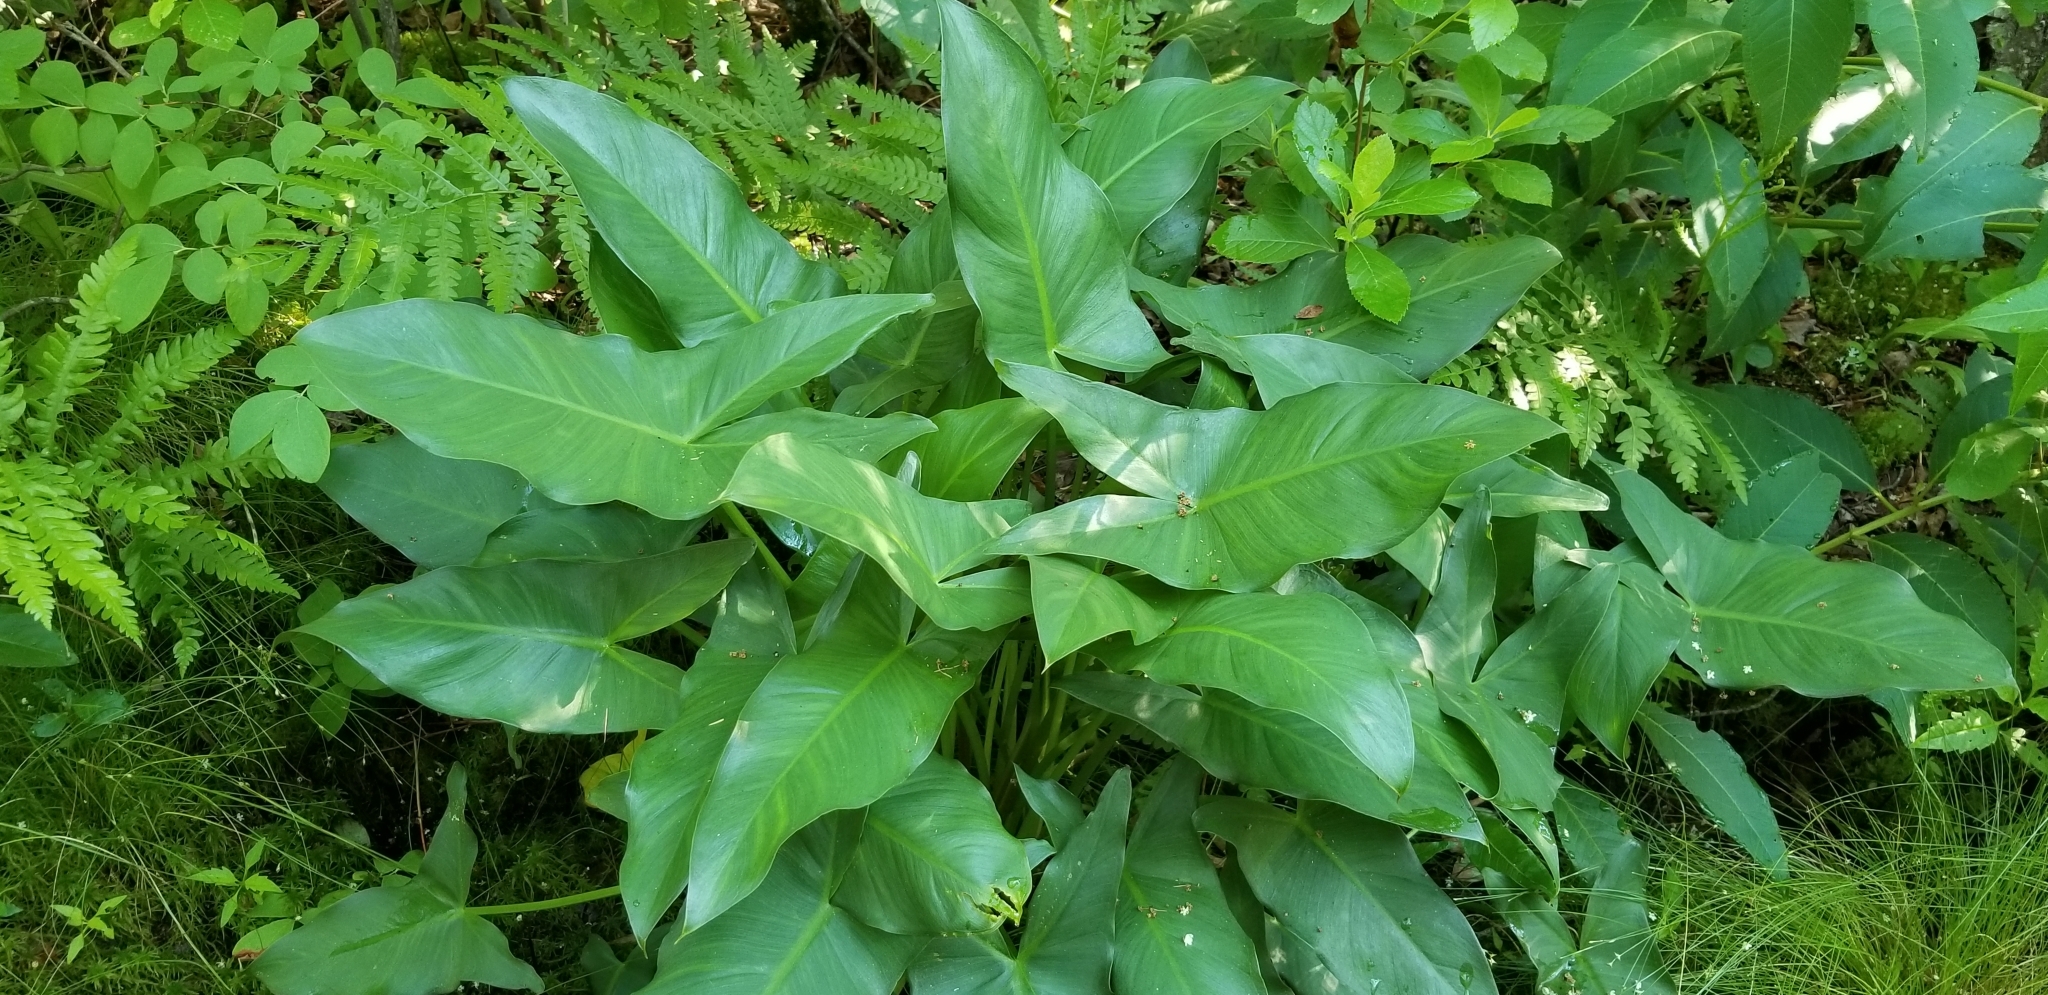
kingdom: Plantae
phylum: Tracheophyta
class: Liliopsida
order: Alismatales
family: Araceae
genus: Peltandra
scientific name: Peltandra virginica
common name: Arrow arum
